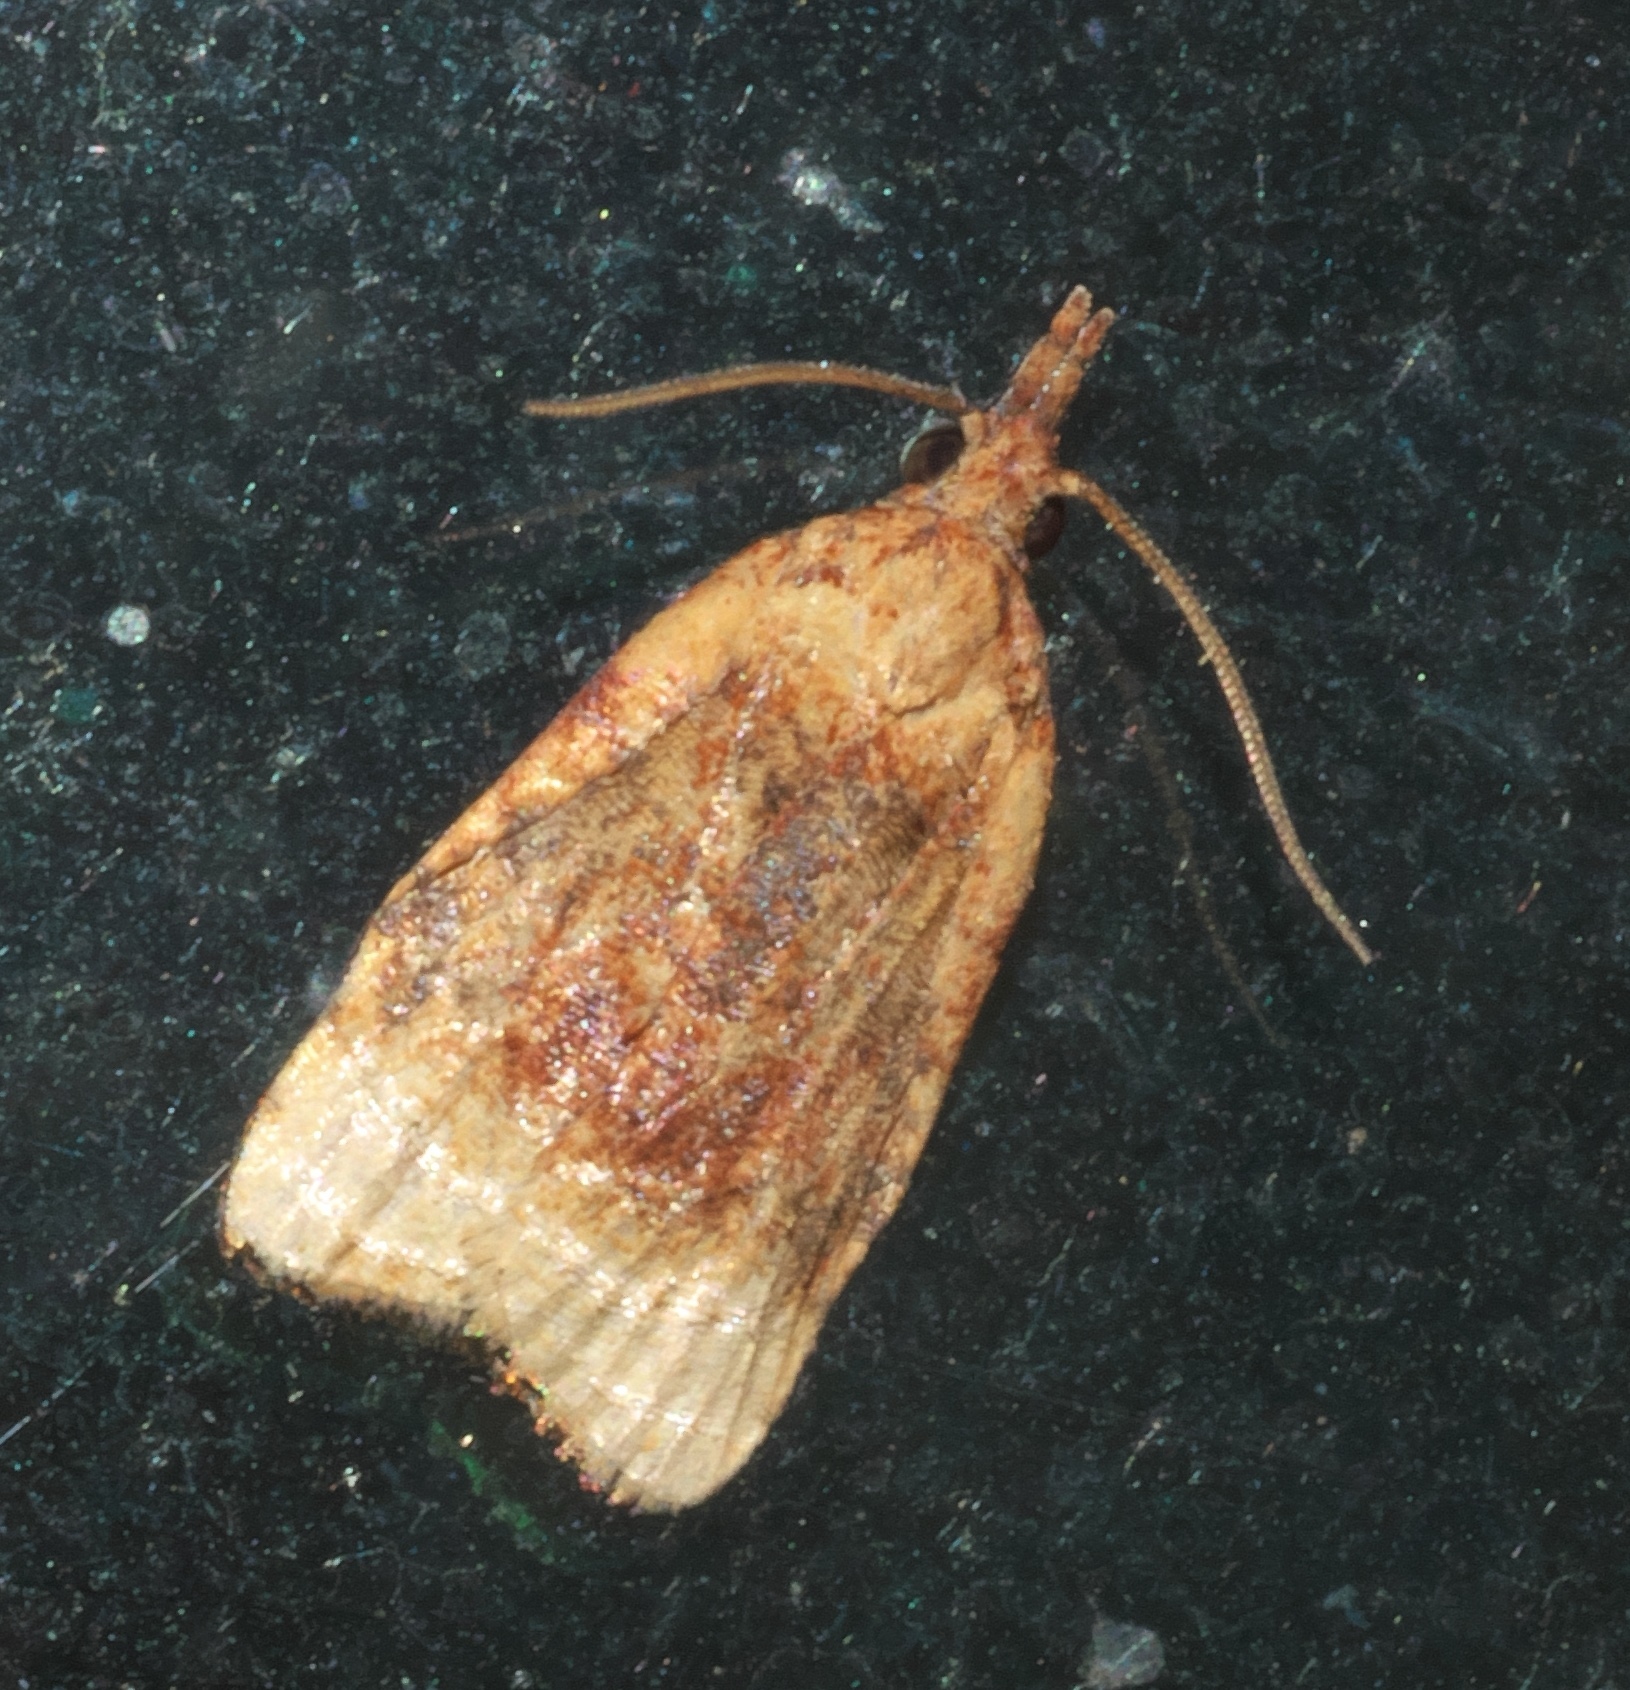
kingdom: Animalia
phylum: Arthropoda
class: Insecta
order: Lepidoptera
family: Tortricidae
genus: Platynota
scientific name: Platynota flavedana
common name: Black-shaded platynota moth
